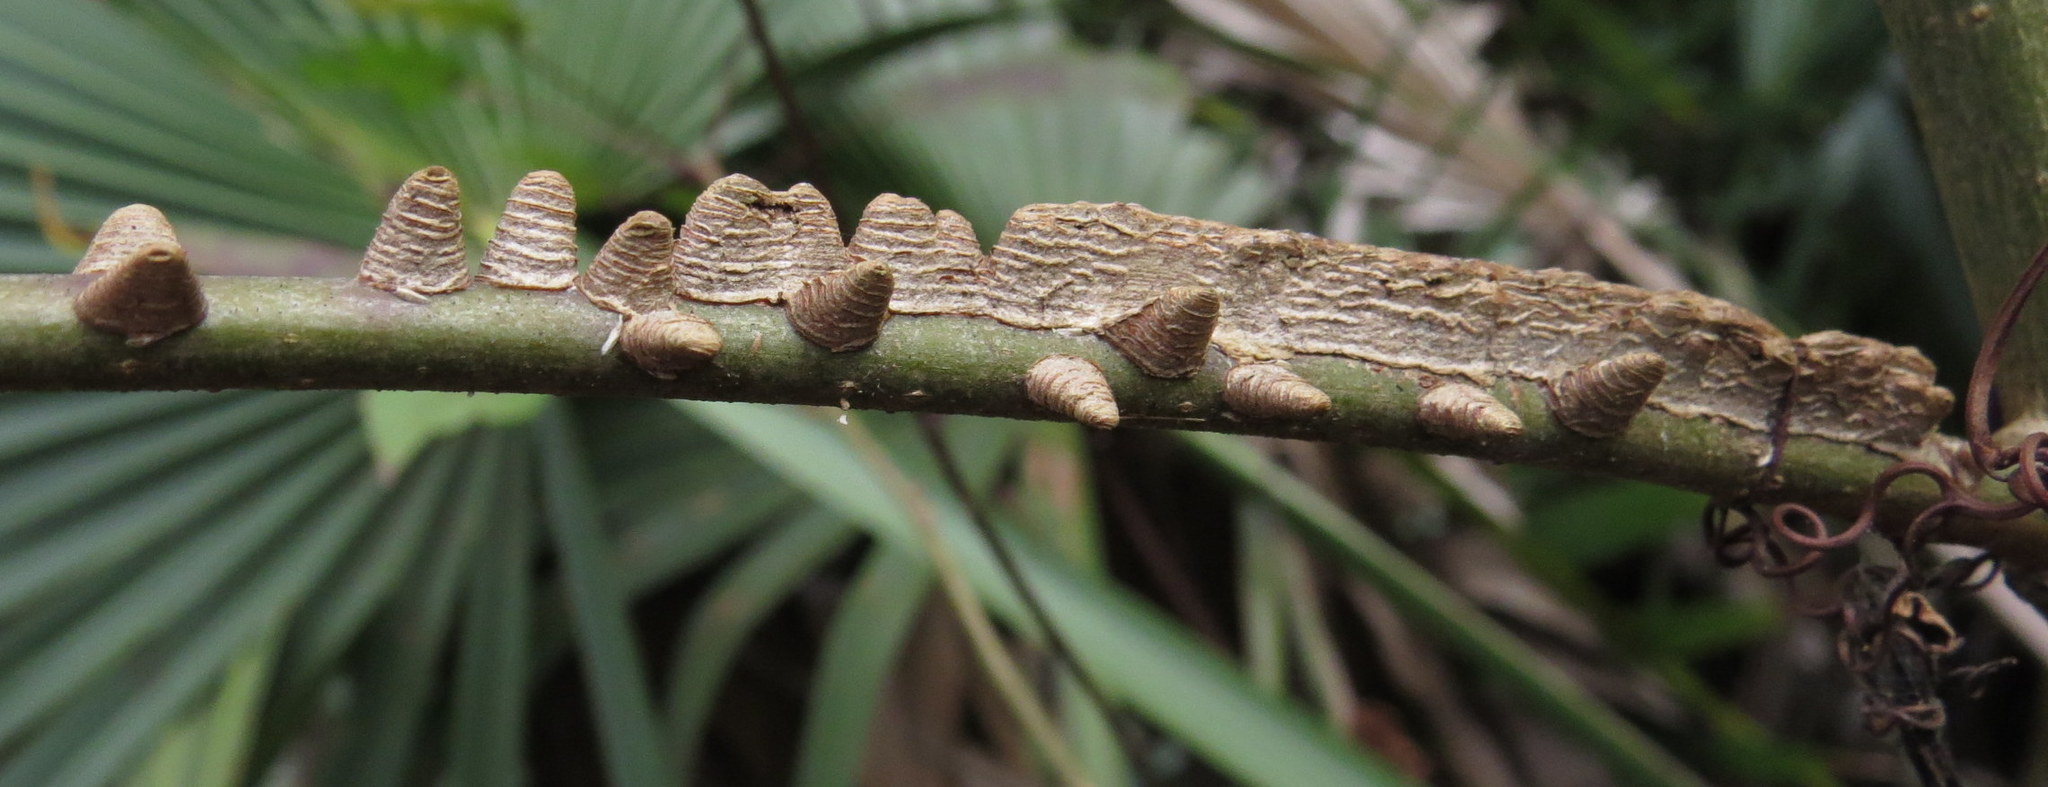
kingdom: Plantae
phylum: Tracheophyta
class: Magnoliopsida
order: Saxifragales
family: Altingiaceae
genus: Liquidambar
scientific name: Liquidambar styraciflua
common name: Sweet gum
